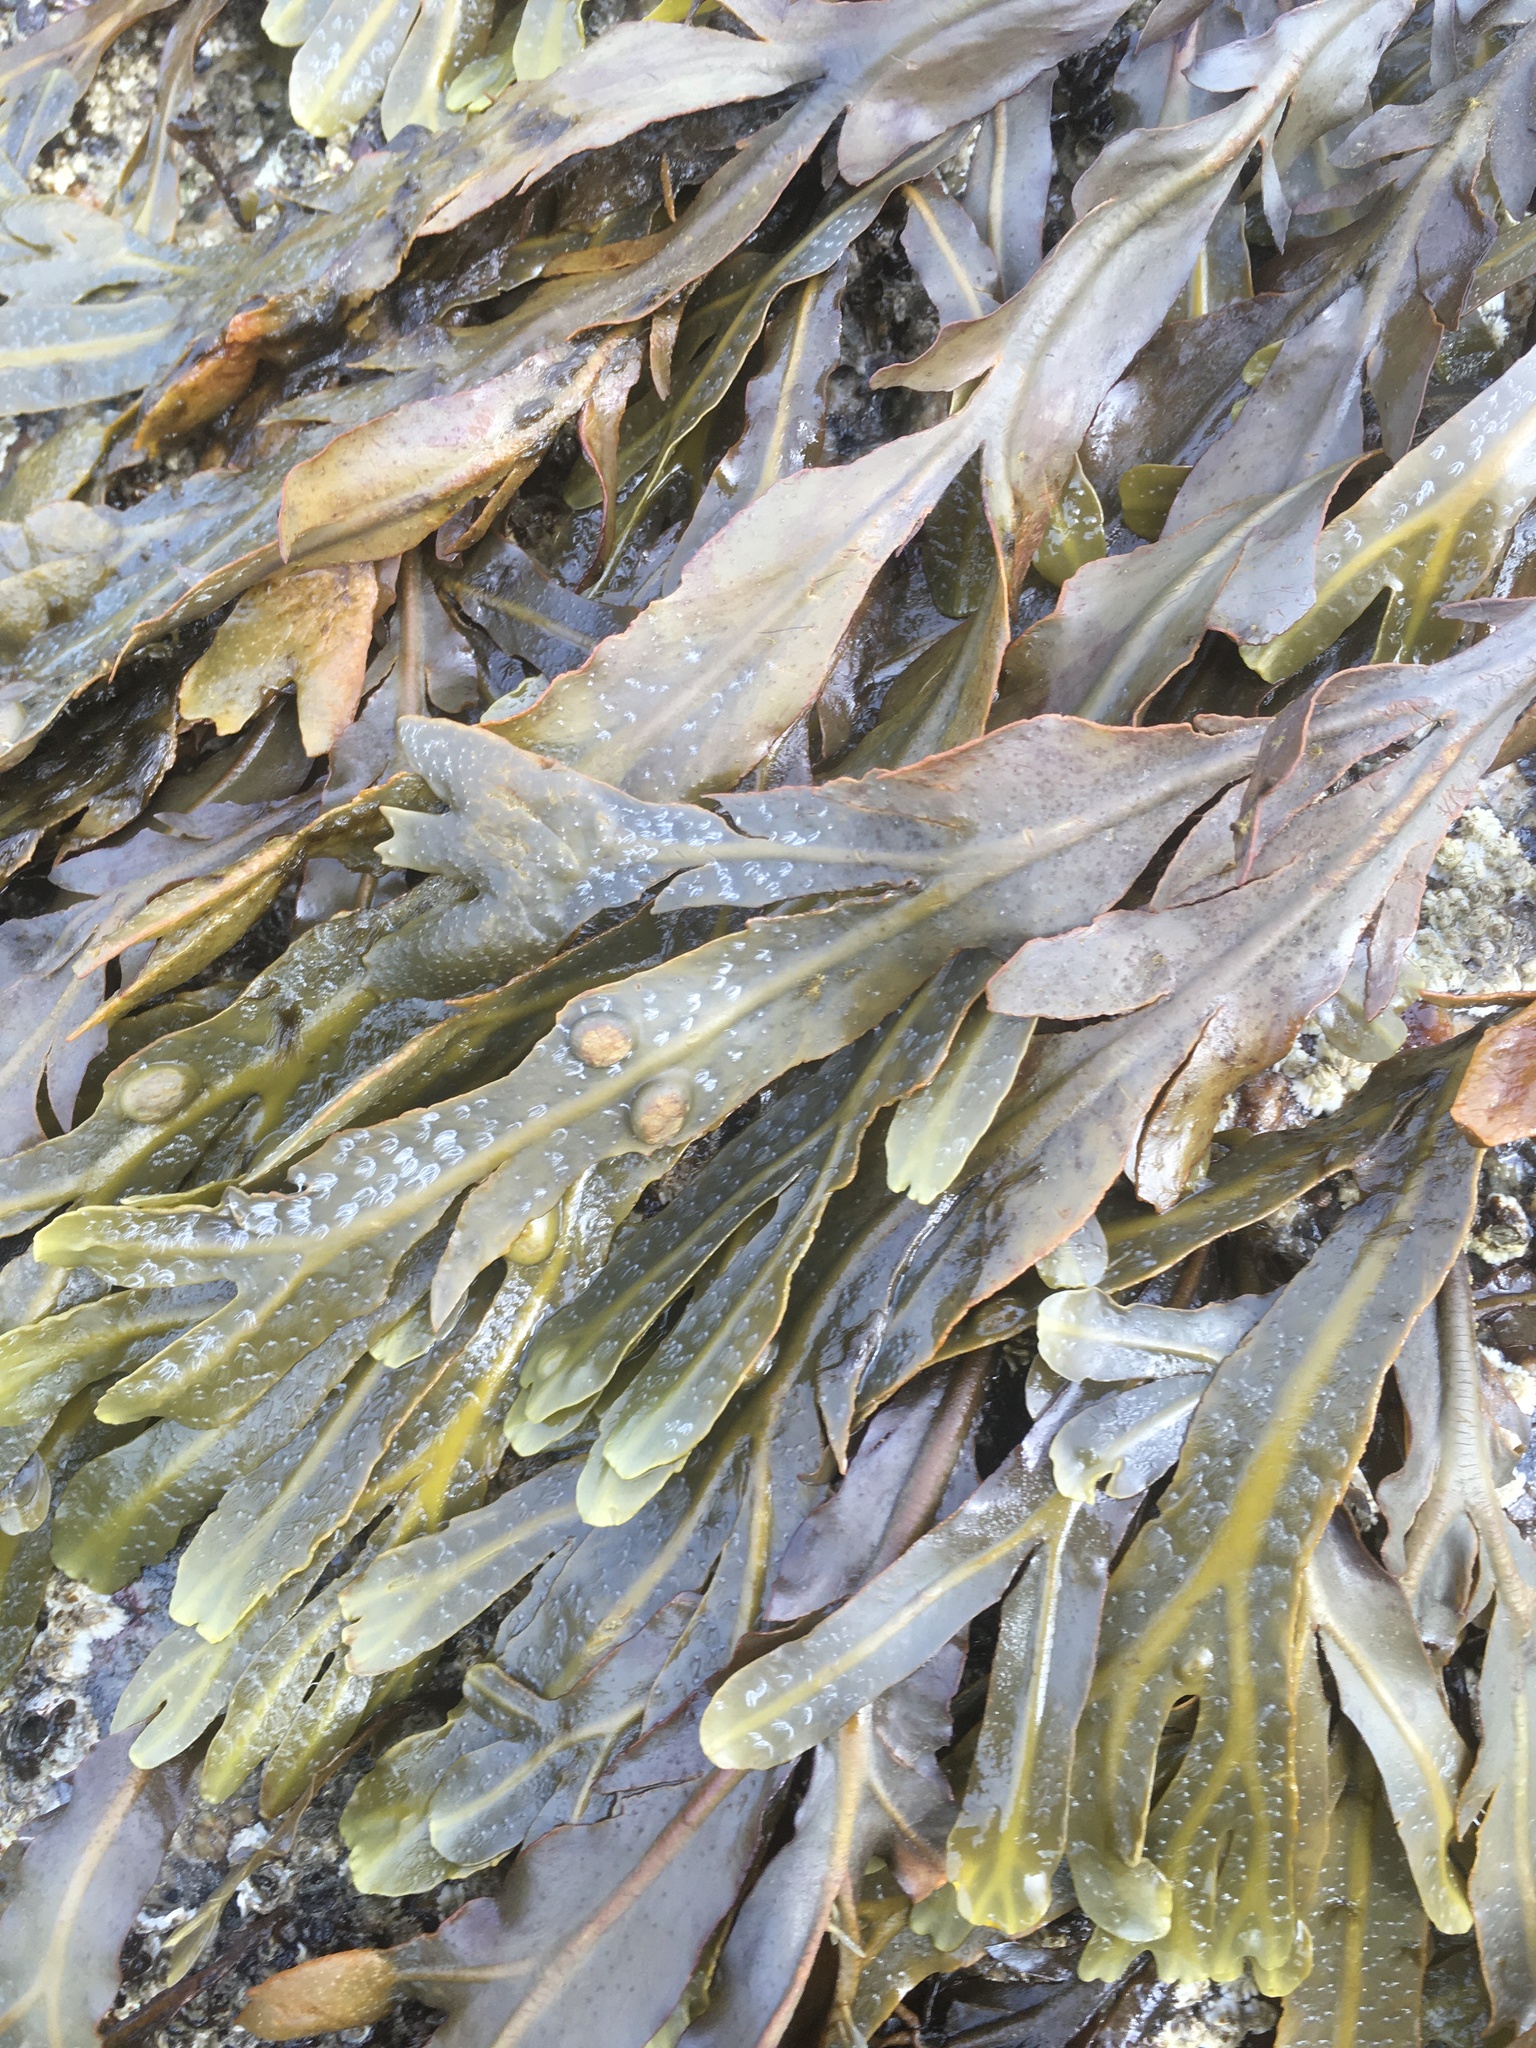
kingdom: Chromista
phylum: Ochrophyta
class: Phaeophyceae
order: Fucales
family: Fucaceae
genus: Fucus
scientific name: Fucus vesiculosus
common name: Bladder wrack
